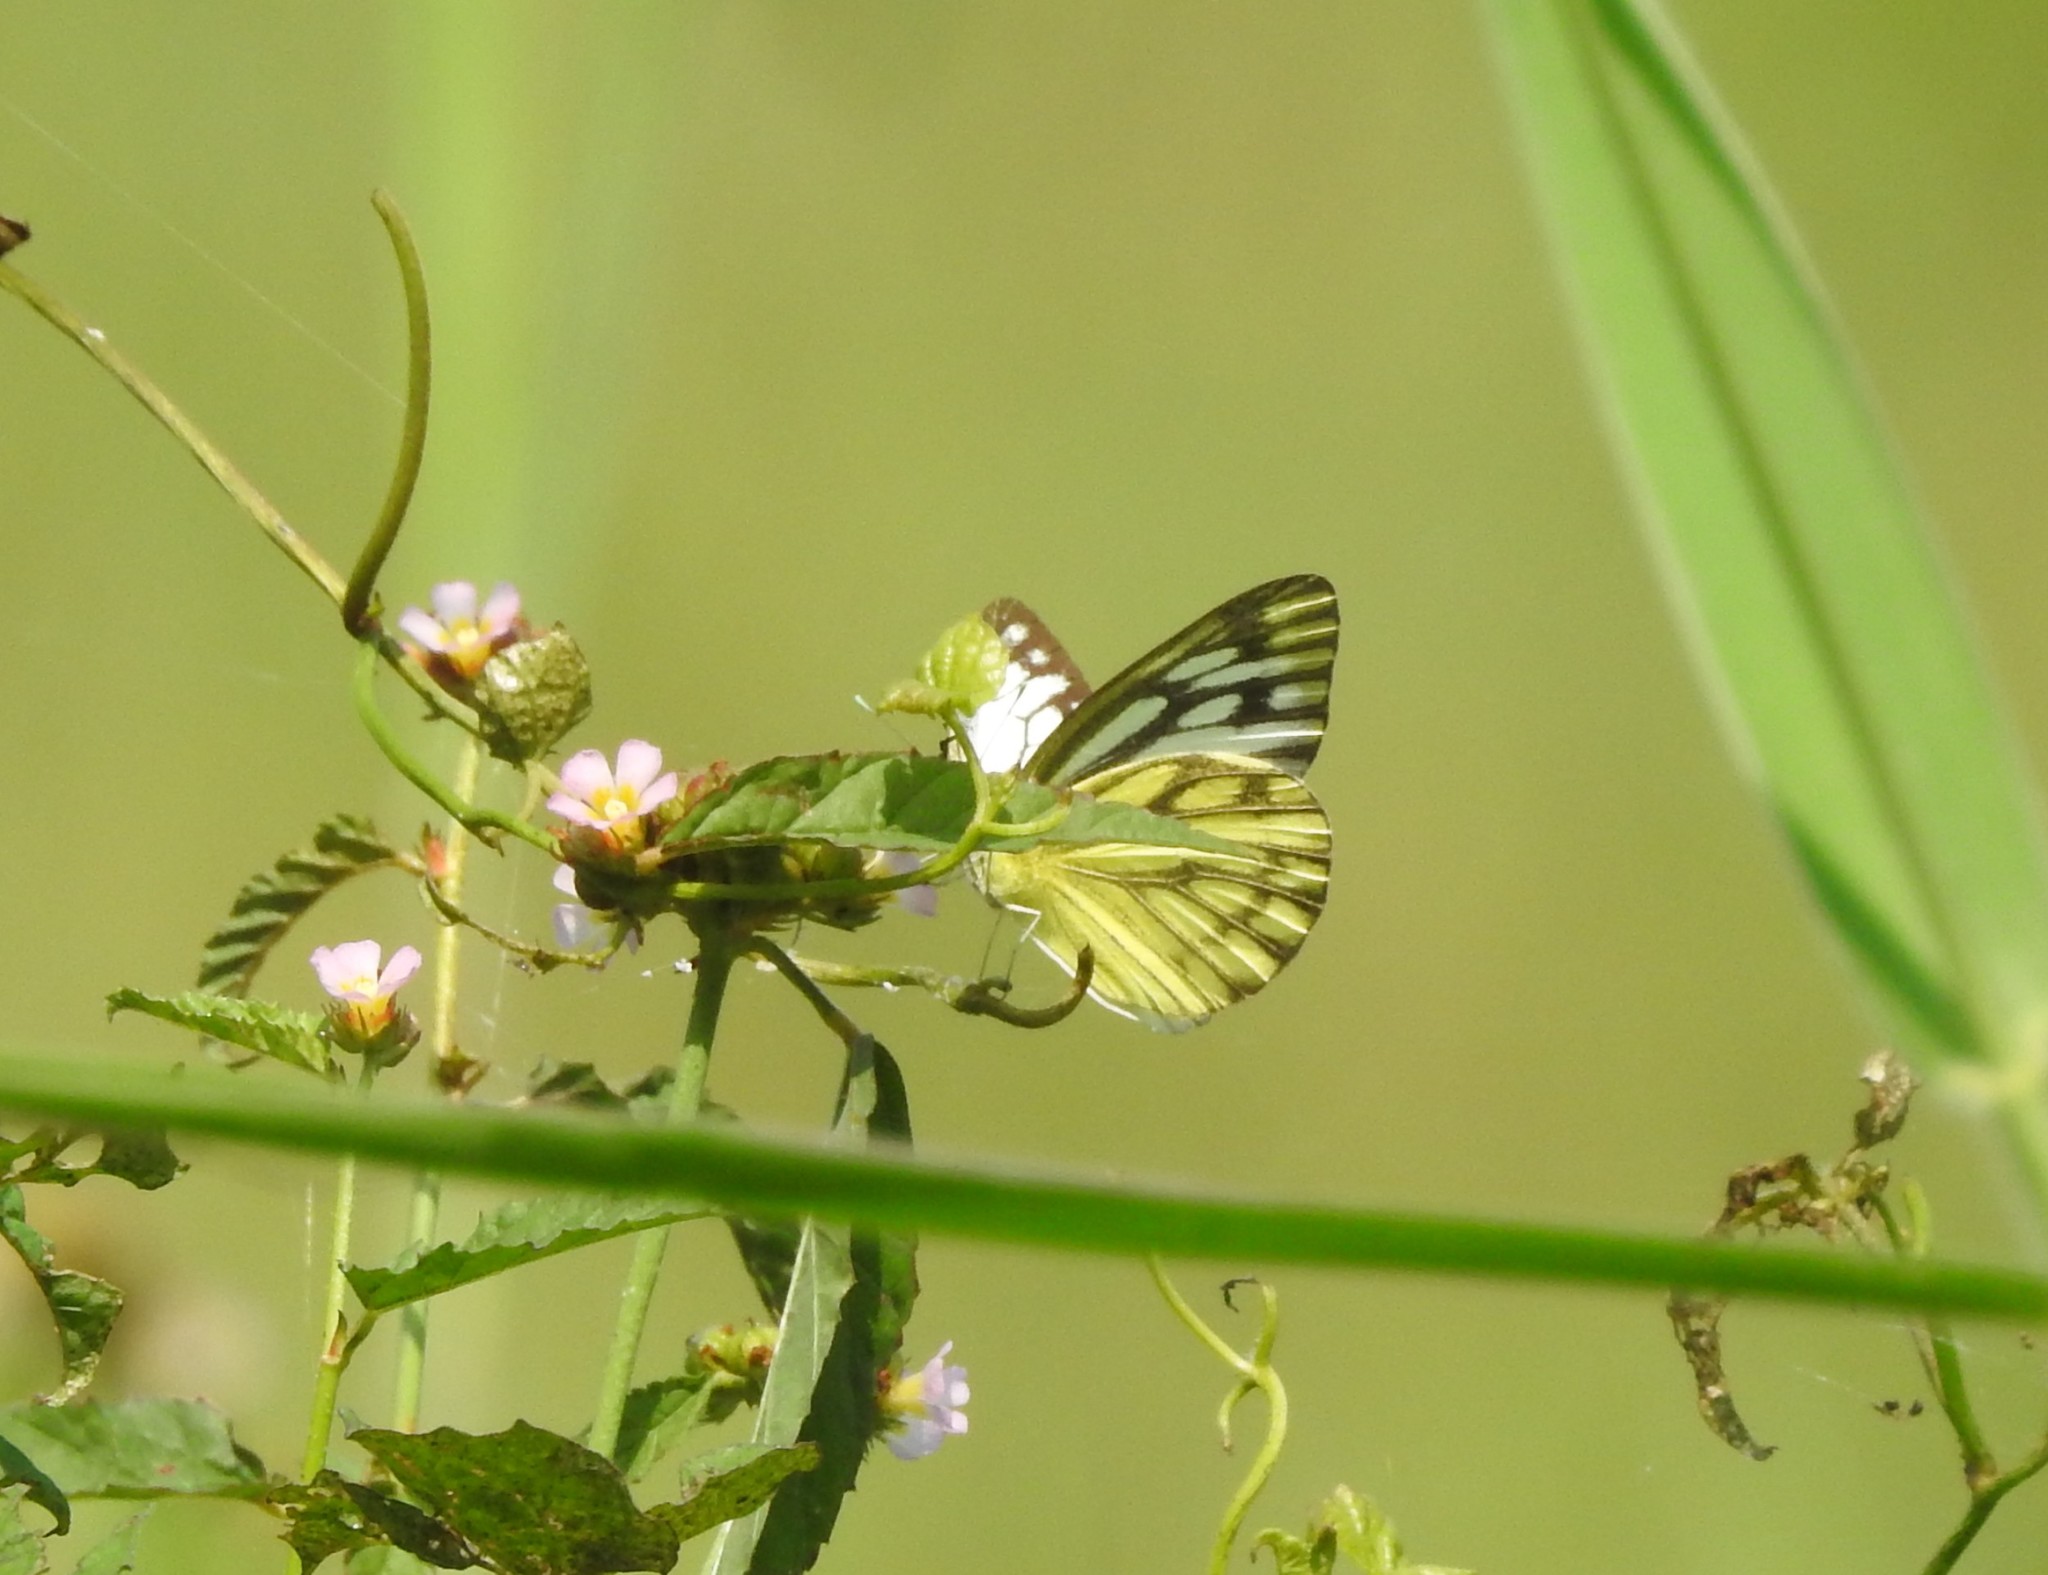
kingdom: Animalia
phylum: Arthropoda
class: Insecta
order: Lepidoptera
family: Pieridae
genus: Cepora
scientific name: Cepora nerissa
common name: Common gull
